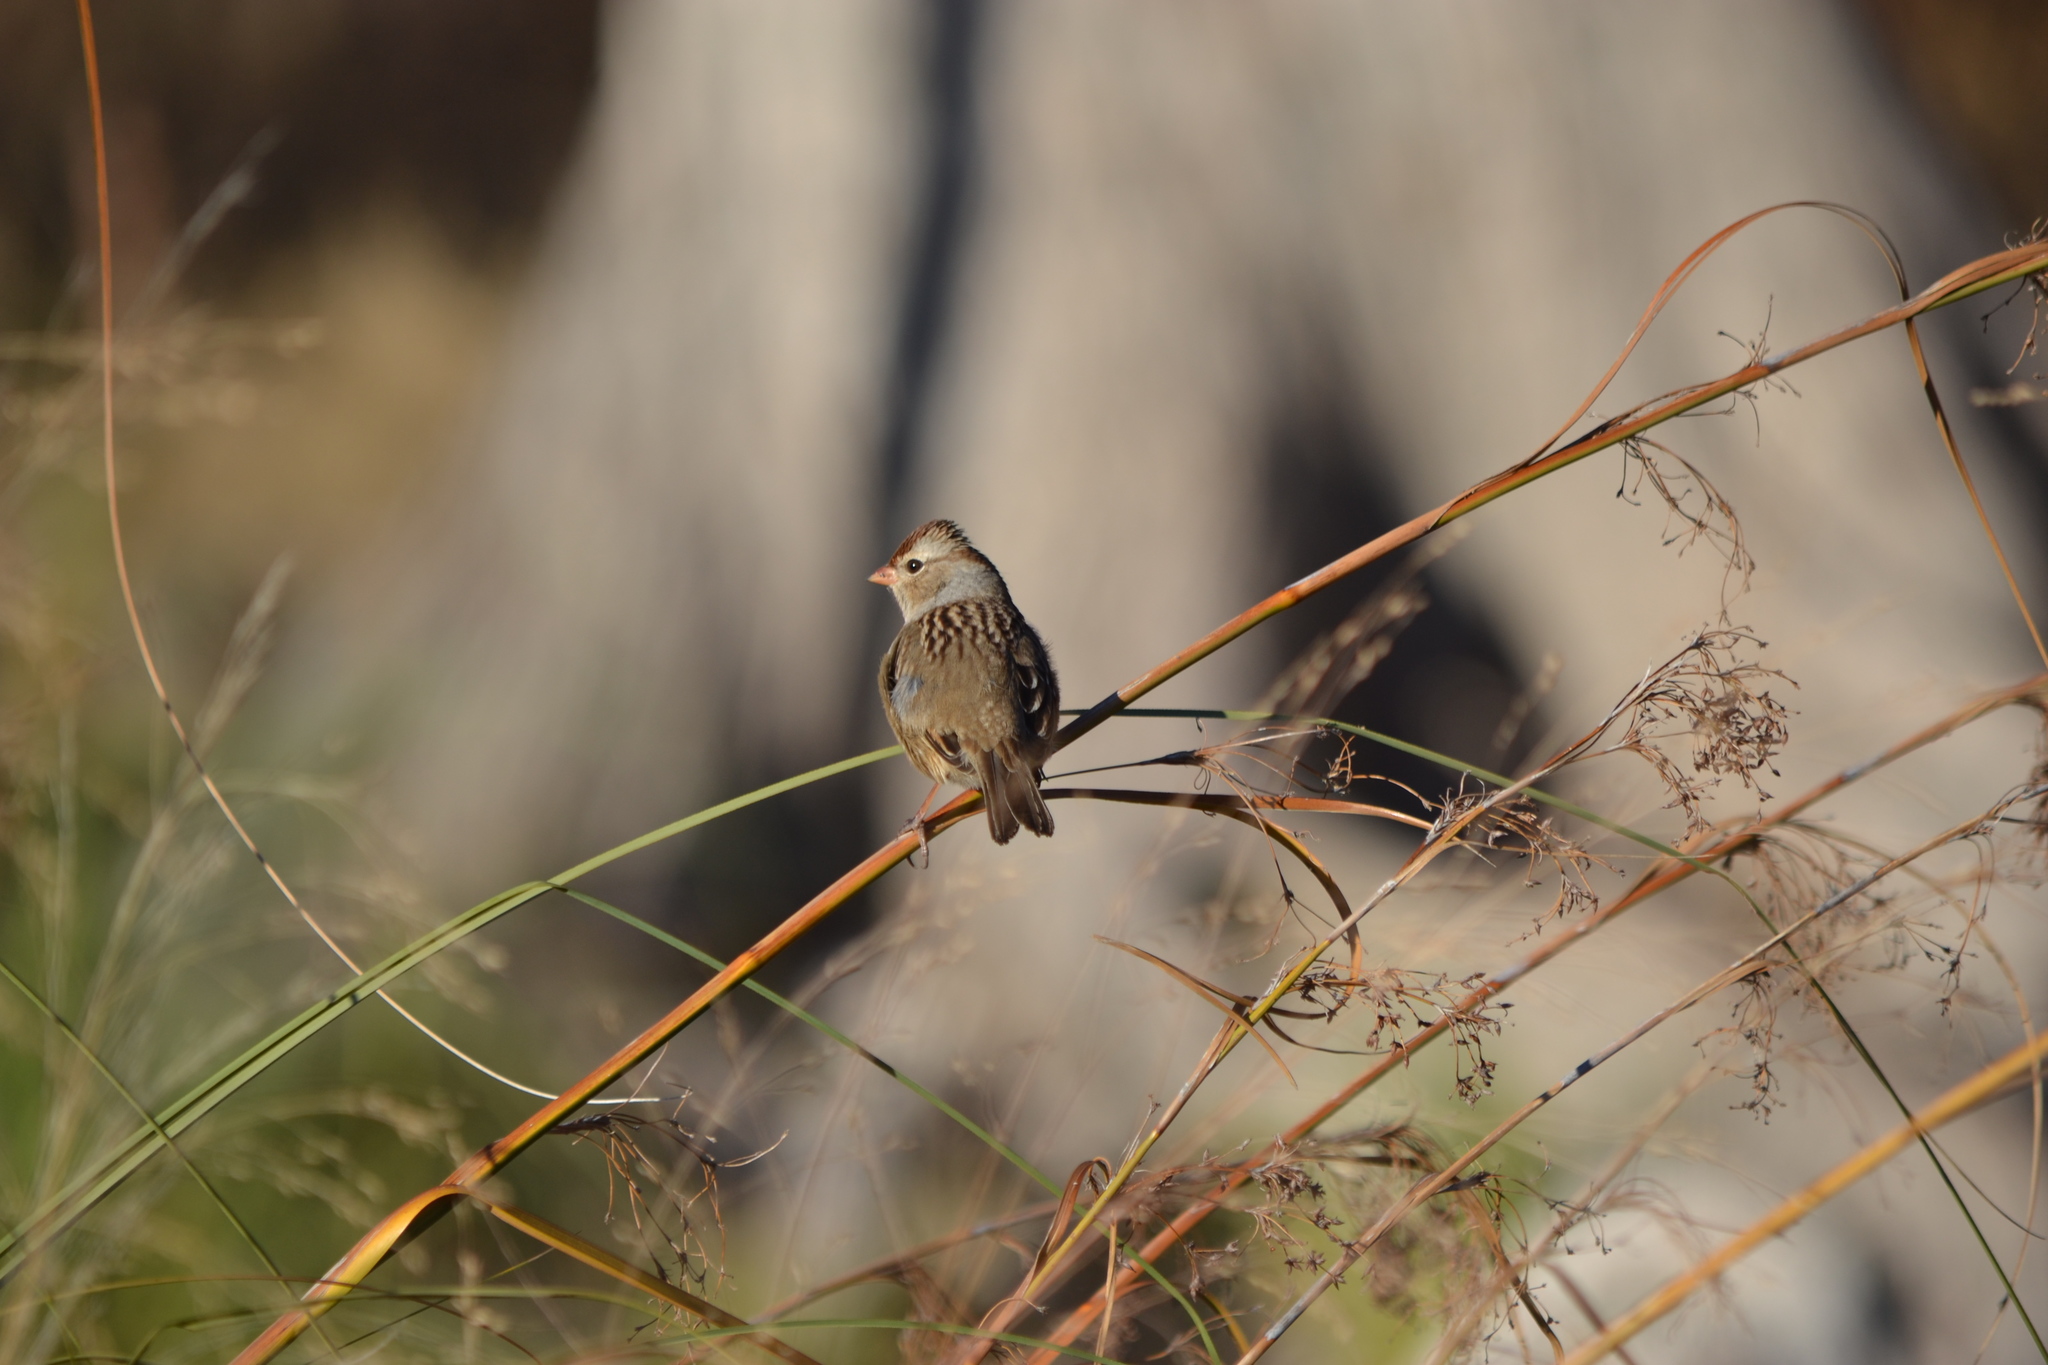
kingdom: Animalia
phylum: Chordata
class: Aves
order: Passeriformes
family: Passerellidae
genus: Zonotrichia
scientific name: Zonotrichia leucophrys
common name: White-crowned sparrow
